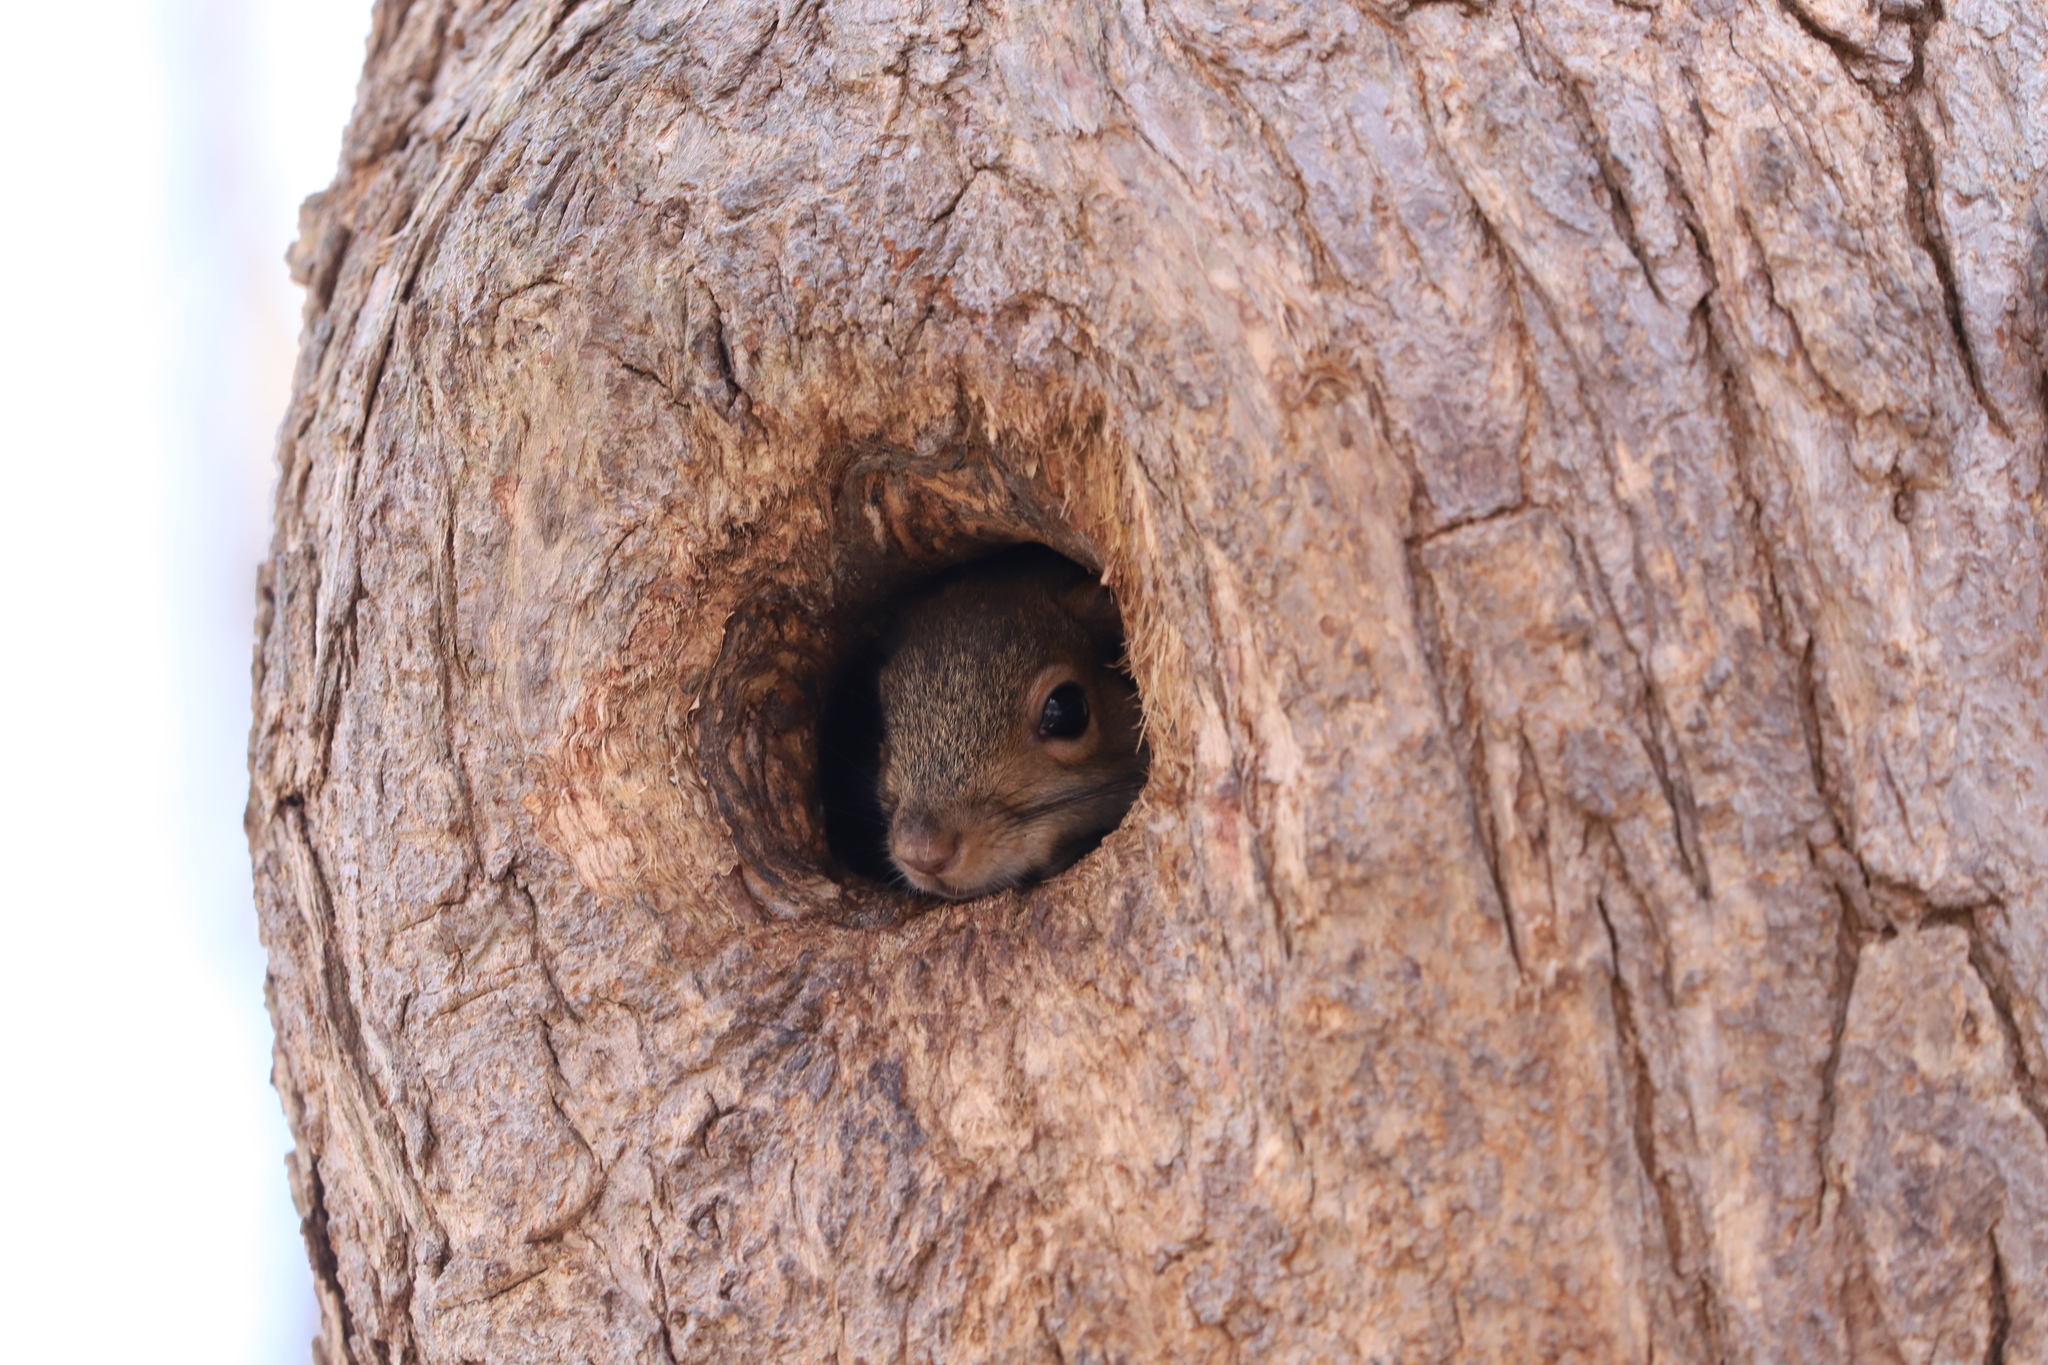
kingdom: Animalia
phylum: Chordata
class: Mammalia
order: Rodentia
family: Sciuridae
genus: Sciurus
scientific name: Sciurus carolinensis
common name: Eastern gray squirrel
